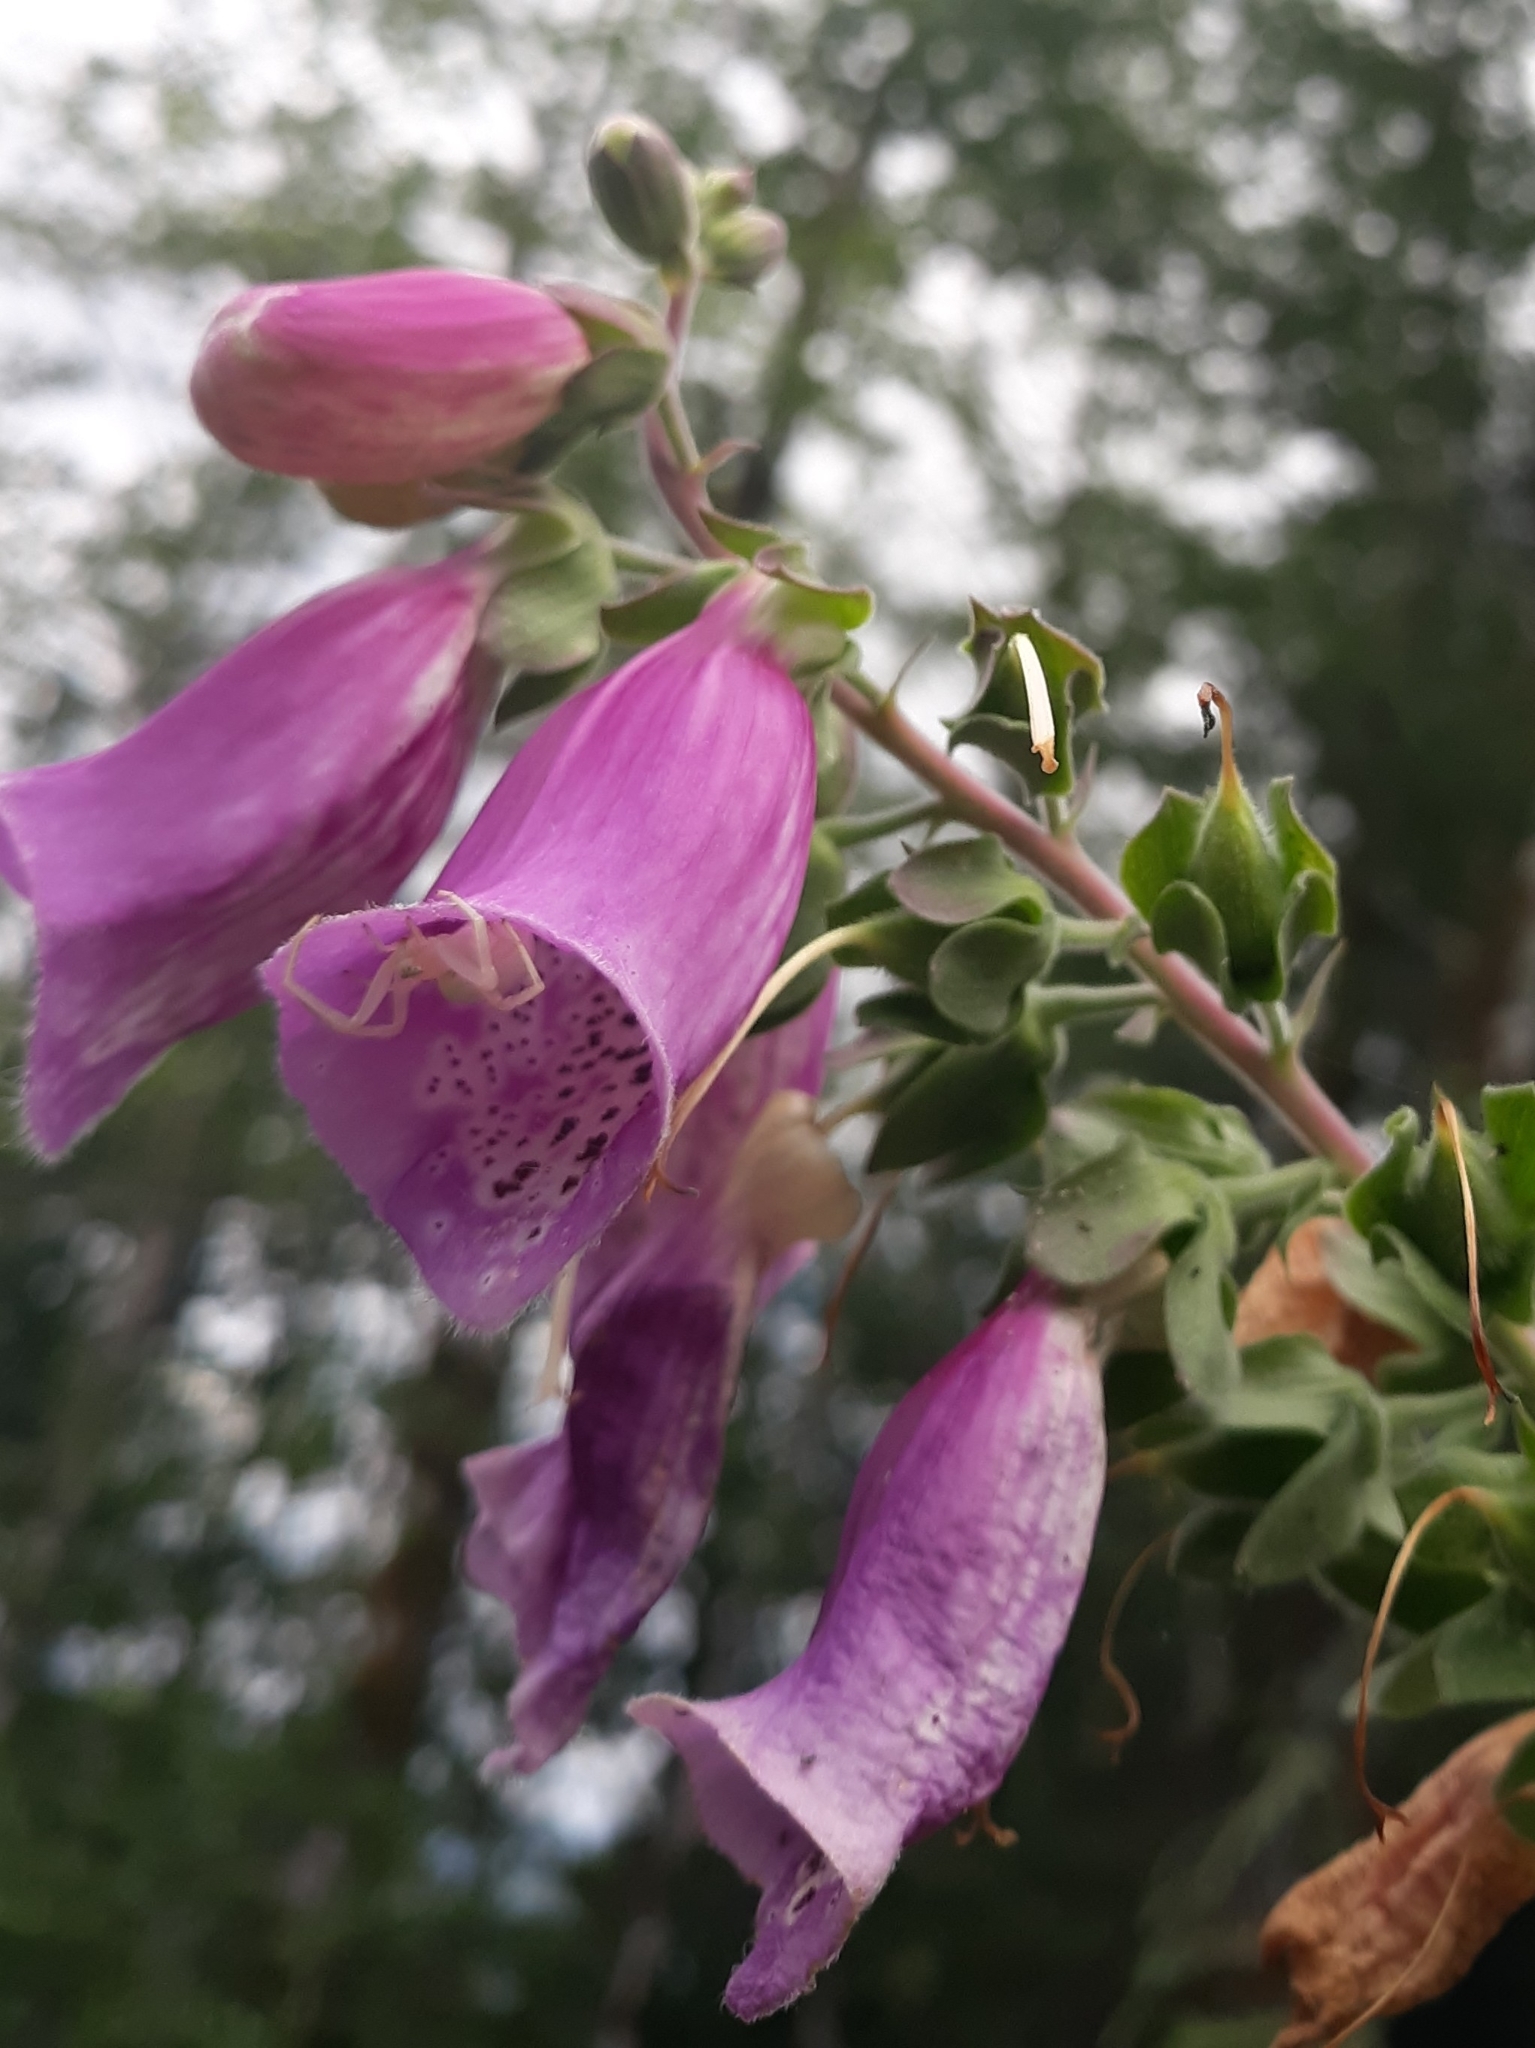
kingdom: Animalia
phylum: Arthropoda
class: Arachnida
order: Araneae
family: Thomisidae
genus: Misumena
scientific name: Misumena vatia
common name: Goldenrod crab spider
